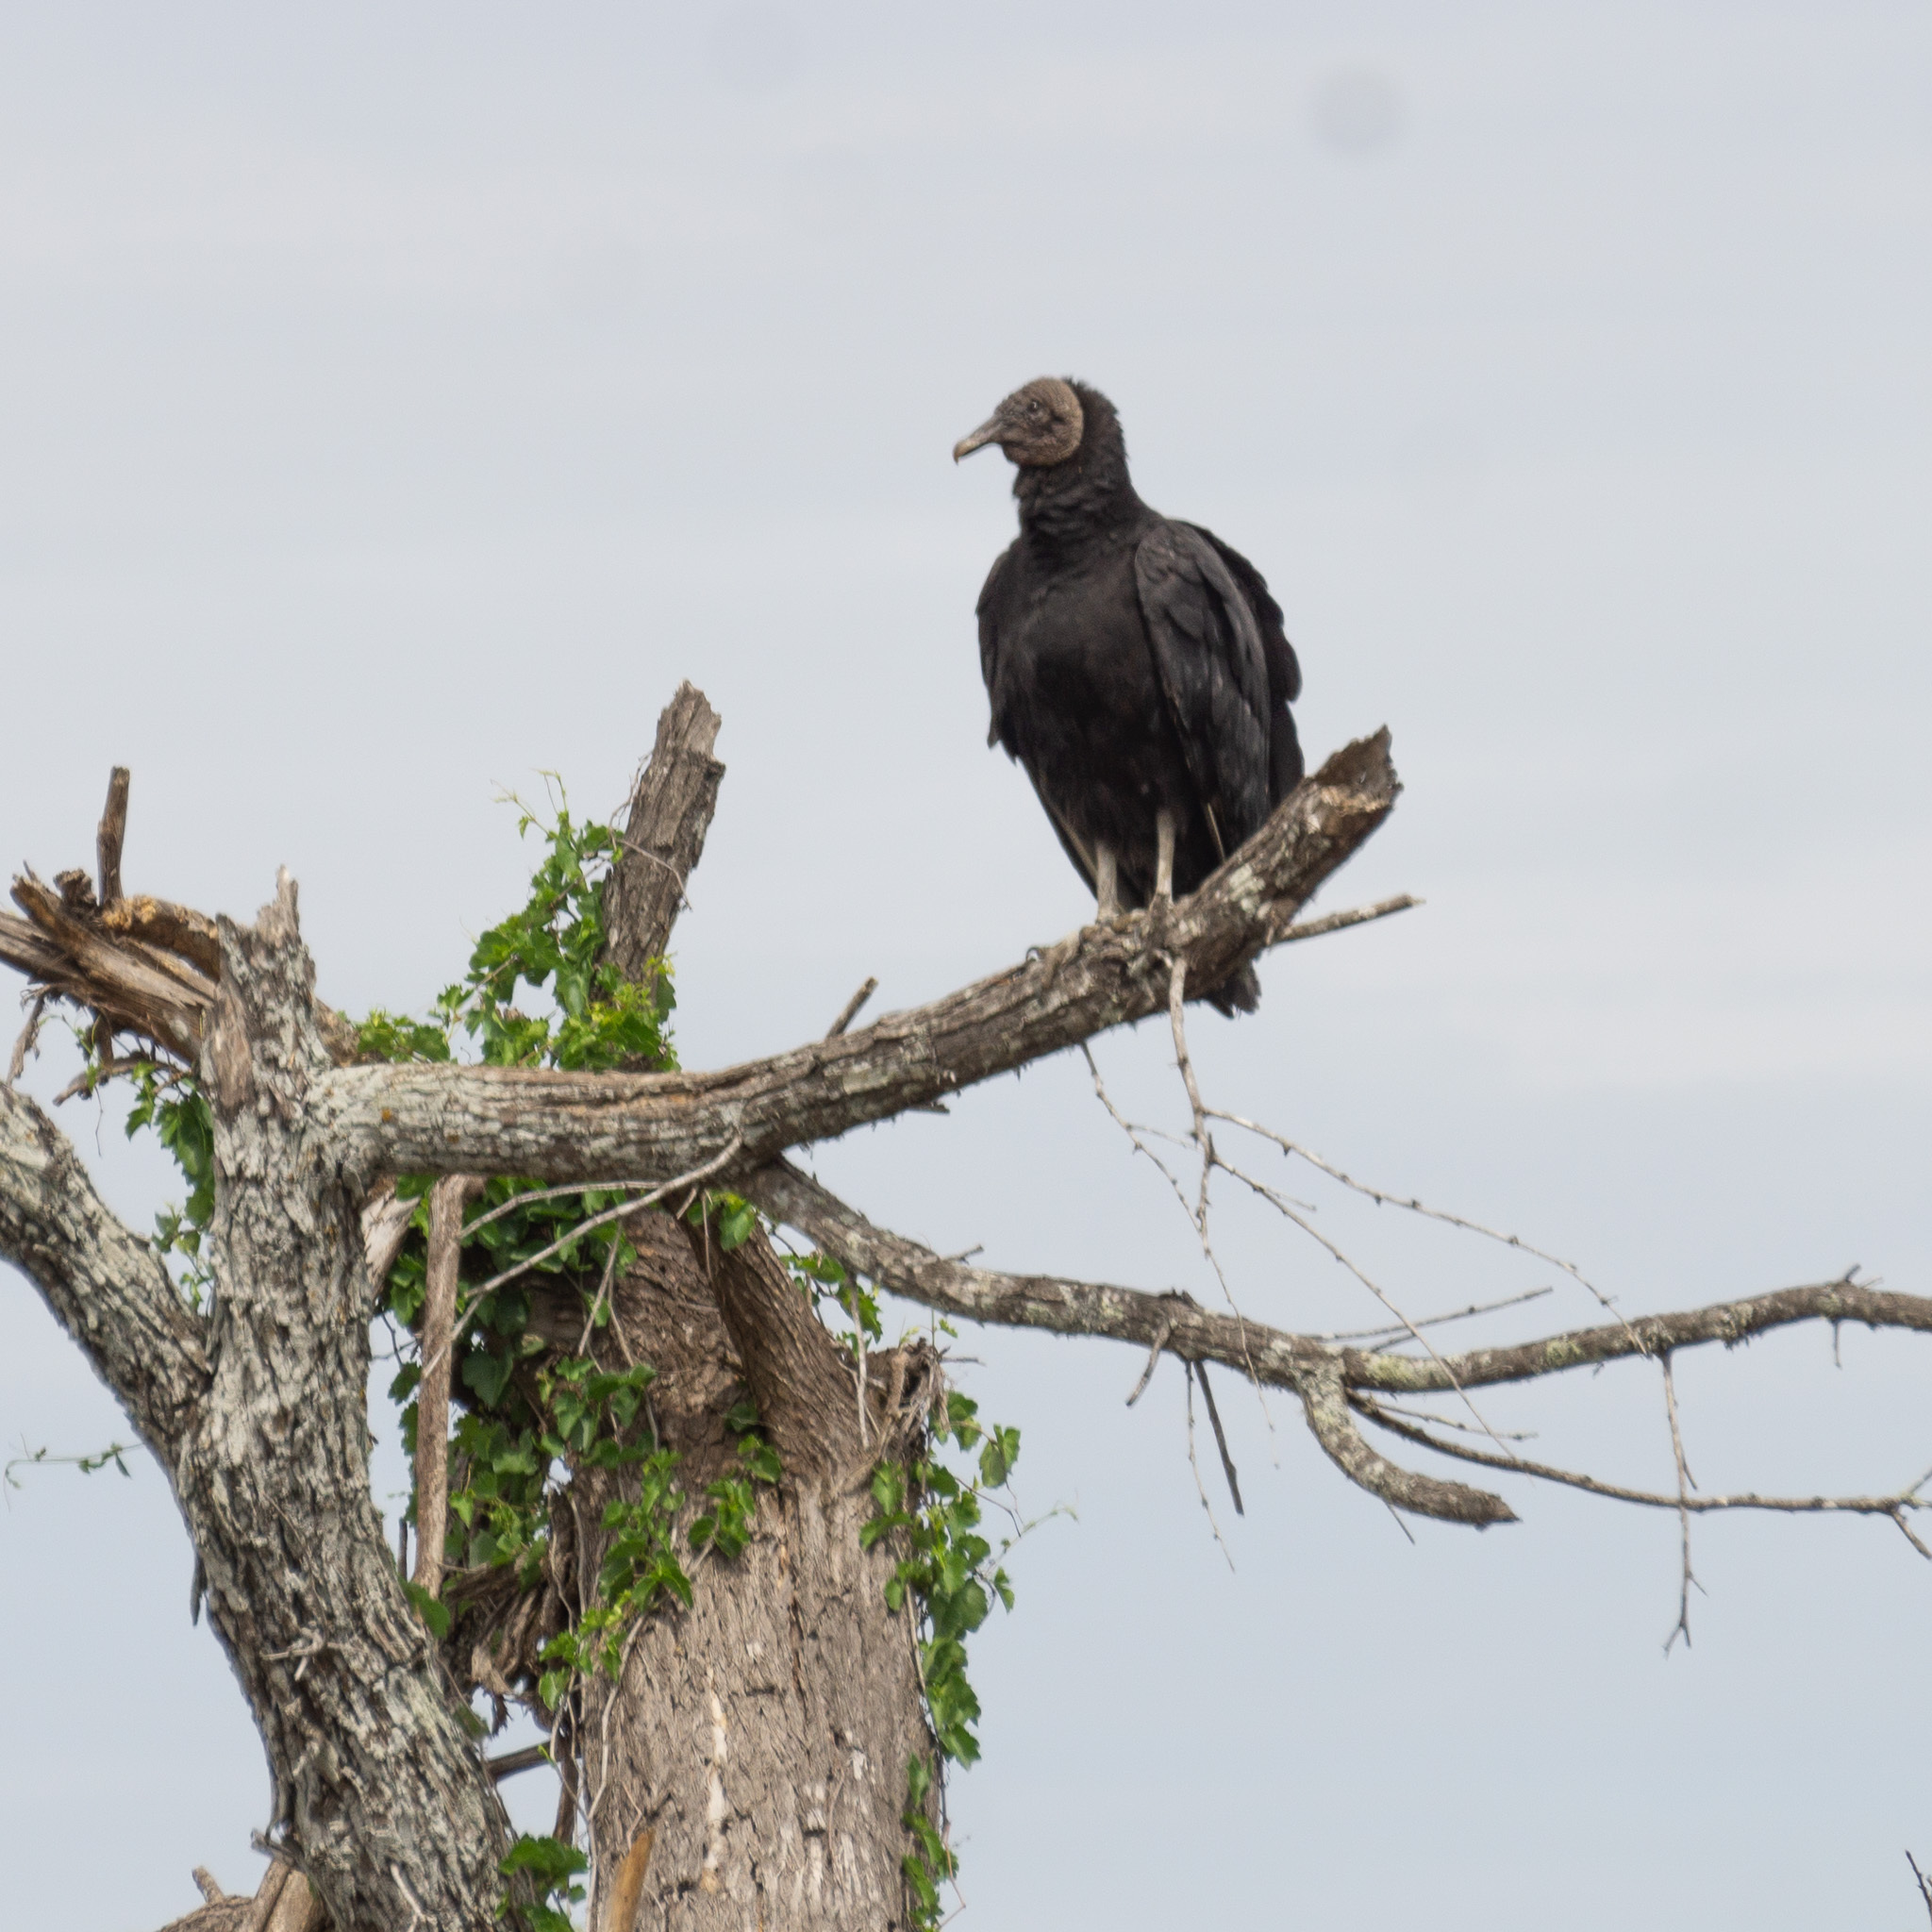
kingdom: Animalia
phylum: Chordata
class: Aves
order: Accipitriformes
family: Cathartidae
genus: Coragyps
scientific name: Coragyps atratus
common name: Black vulture
